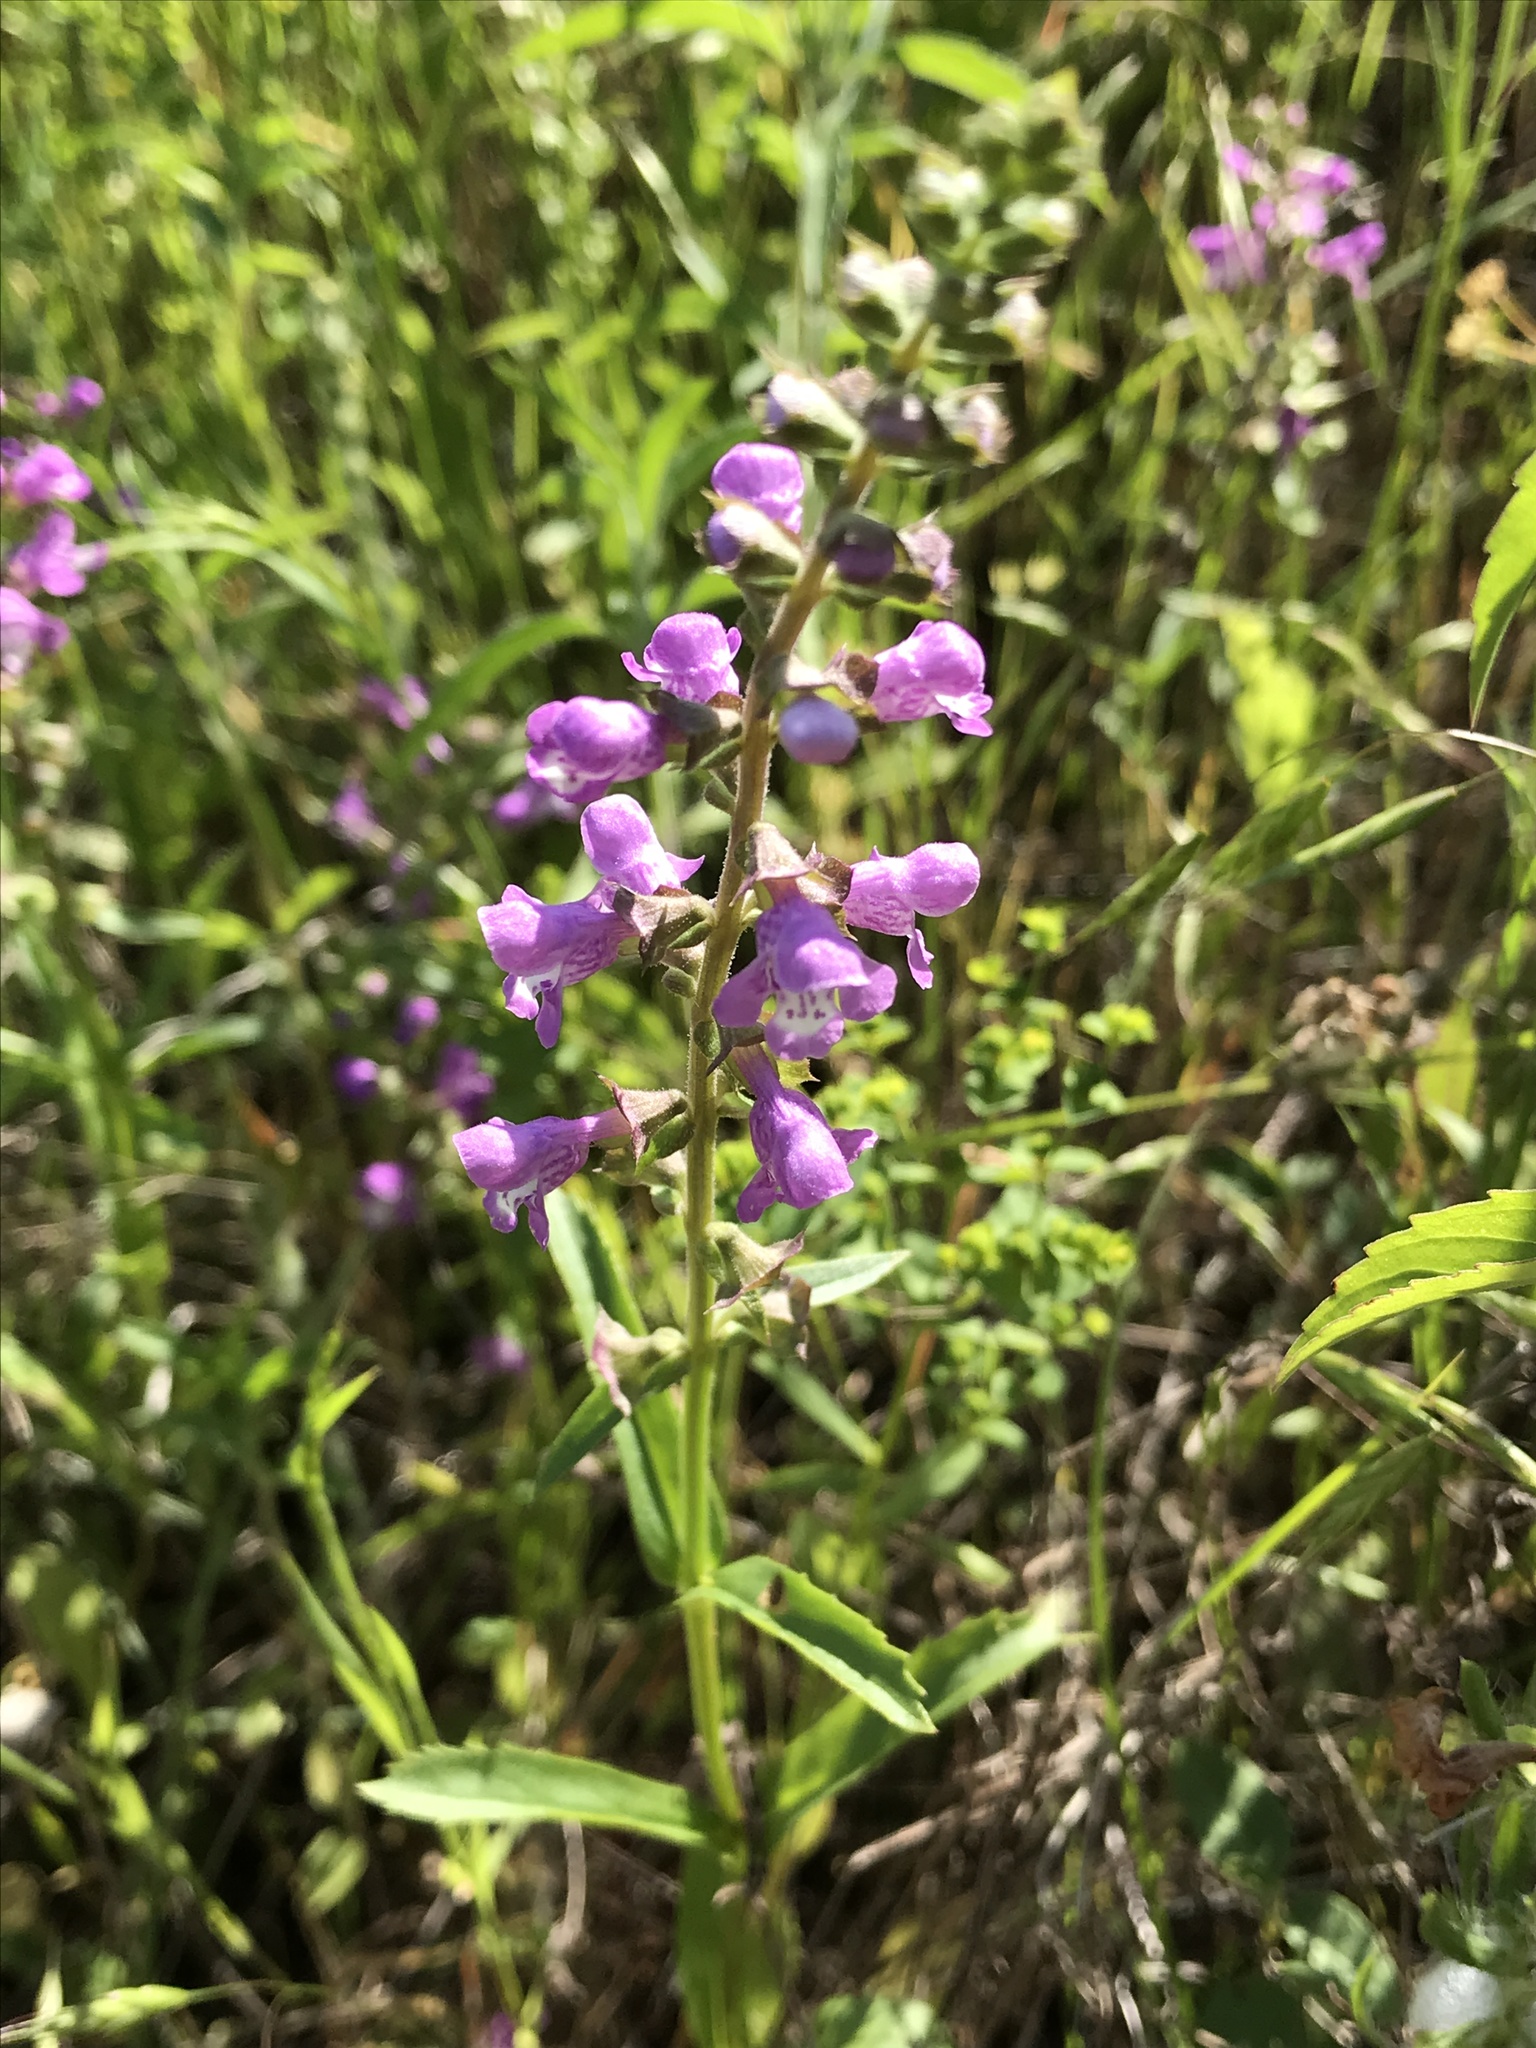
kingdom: Plantae
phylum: Tracheophyta
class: Magnoliopsida
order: Lamiales
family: Lamiaceae
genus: Warnockia
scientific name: Warnockia scutellarioides
